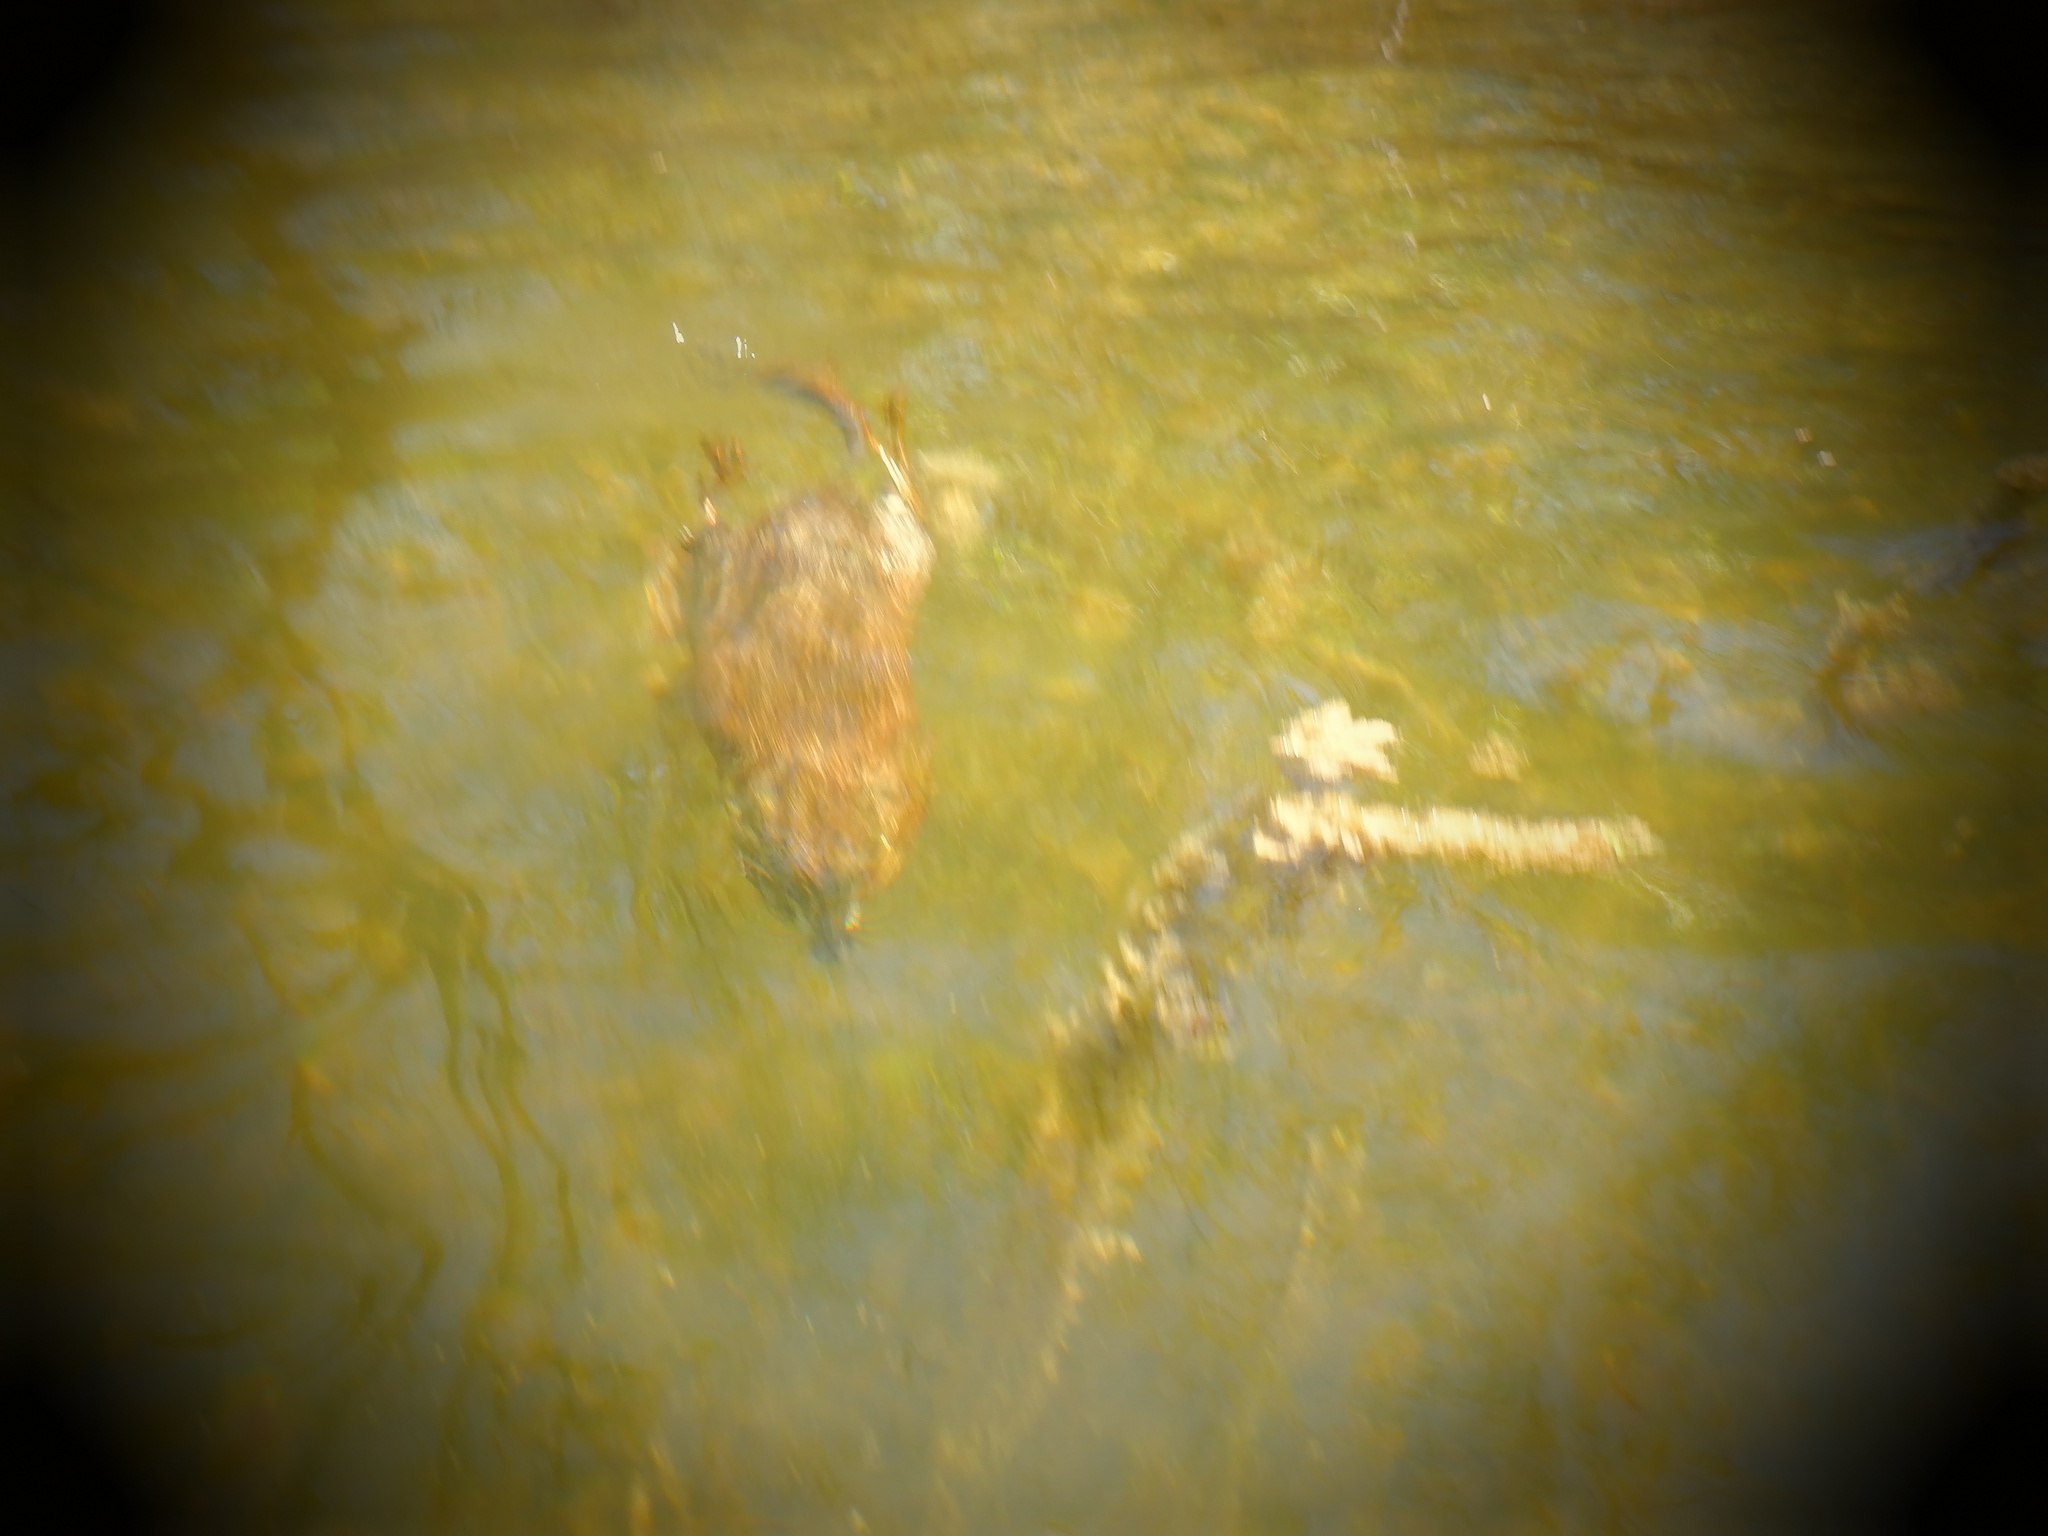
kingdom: Animalia
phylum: Chordata
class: Mammalia
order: Rodentia
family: Cricetidae
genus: Ondatra
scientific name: Ondatra zibethicus
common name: Muskrat
